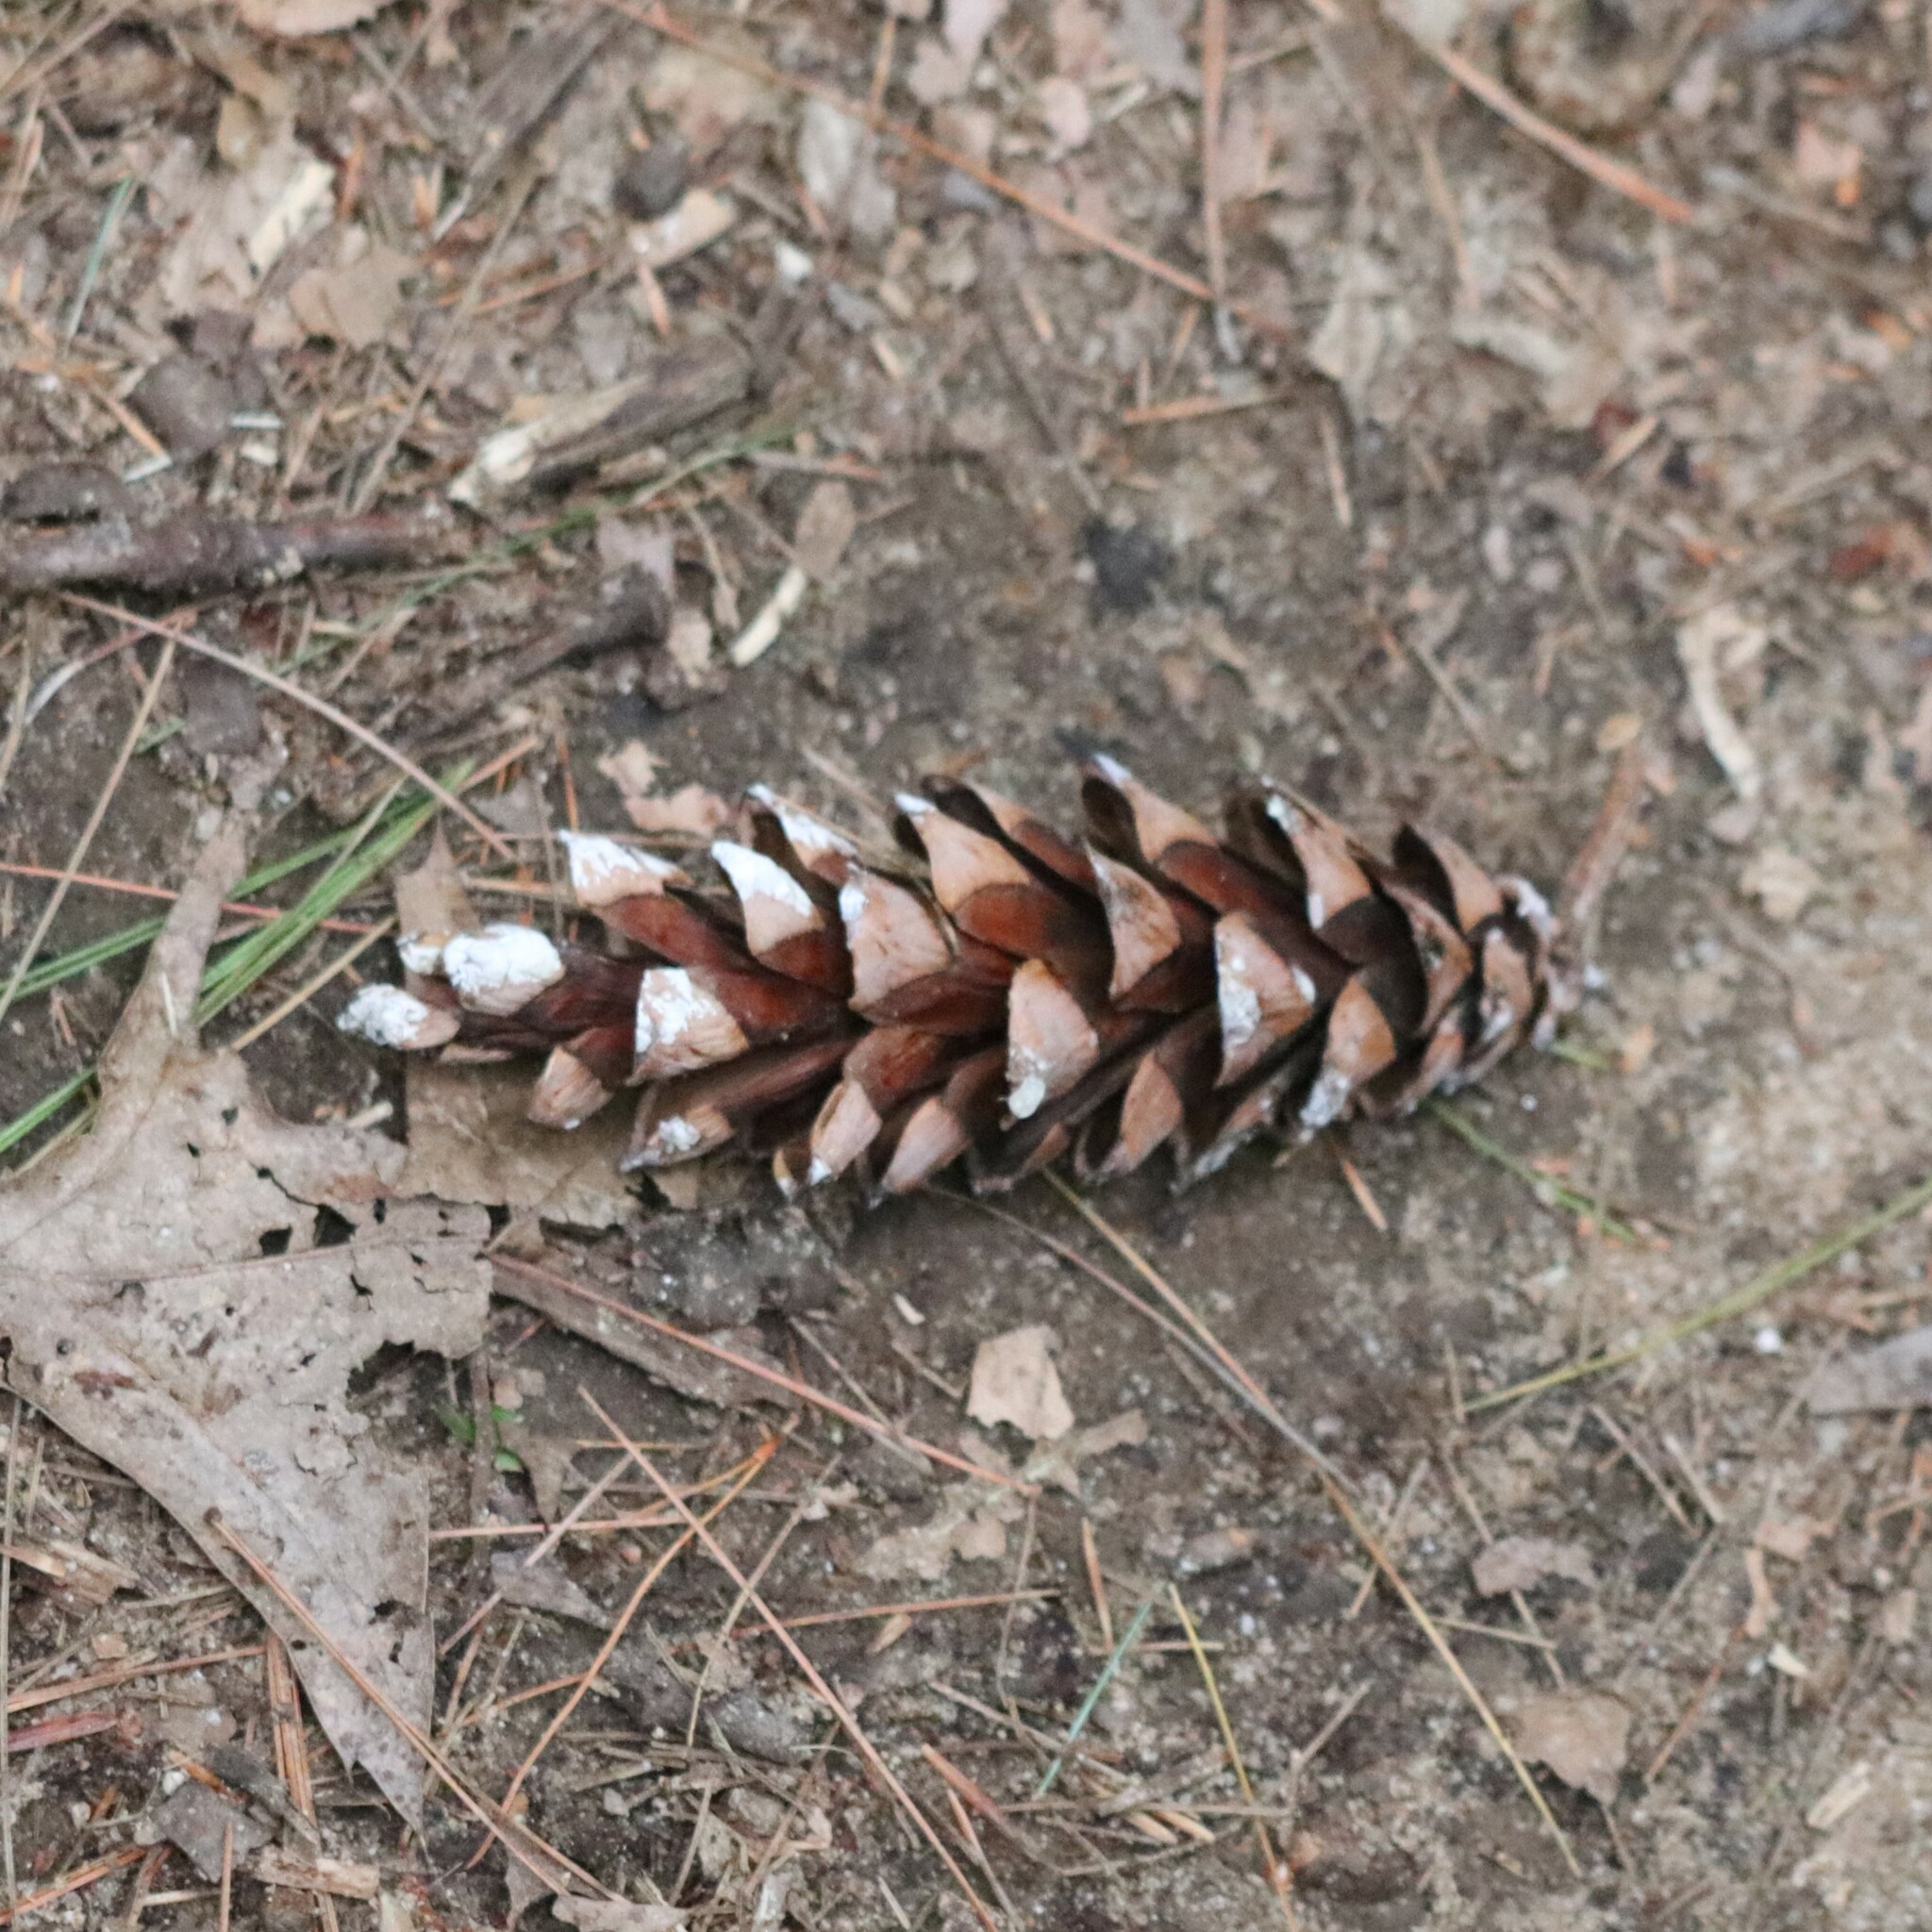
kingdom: Plantae
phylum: Tracheophyta
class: Pinopsida
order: Pinales
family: Pinaceae
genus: Pinus
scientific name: Pinus strobus
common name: Weymouth pine
